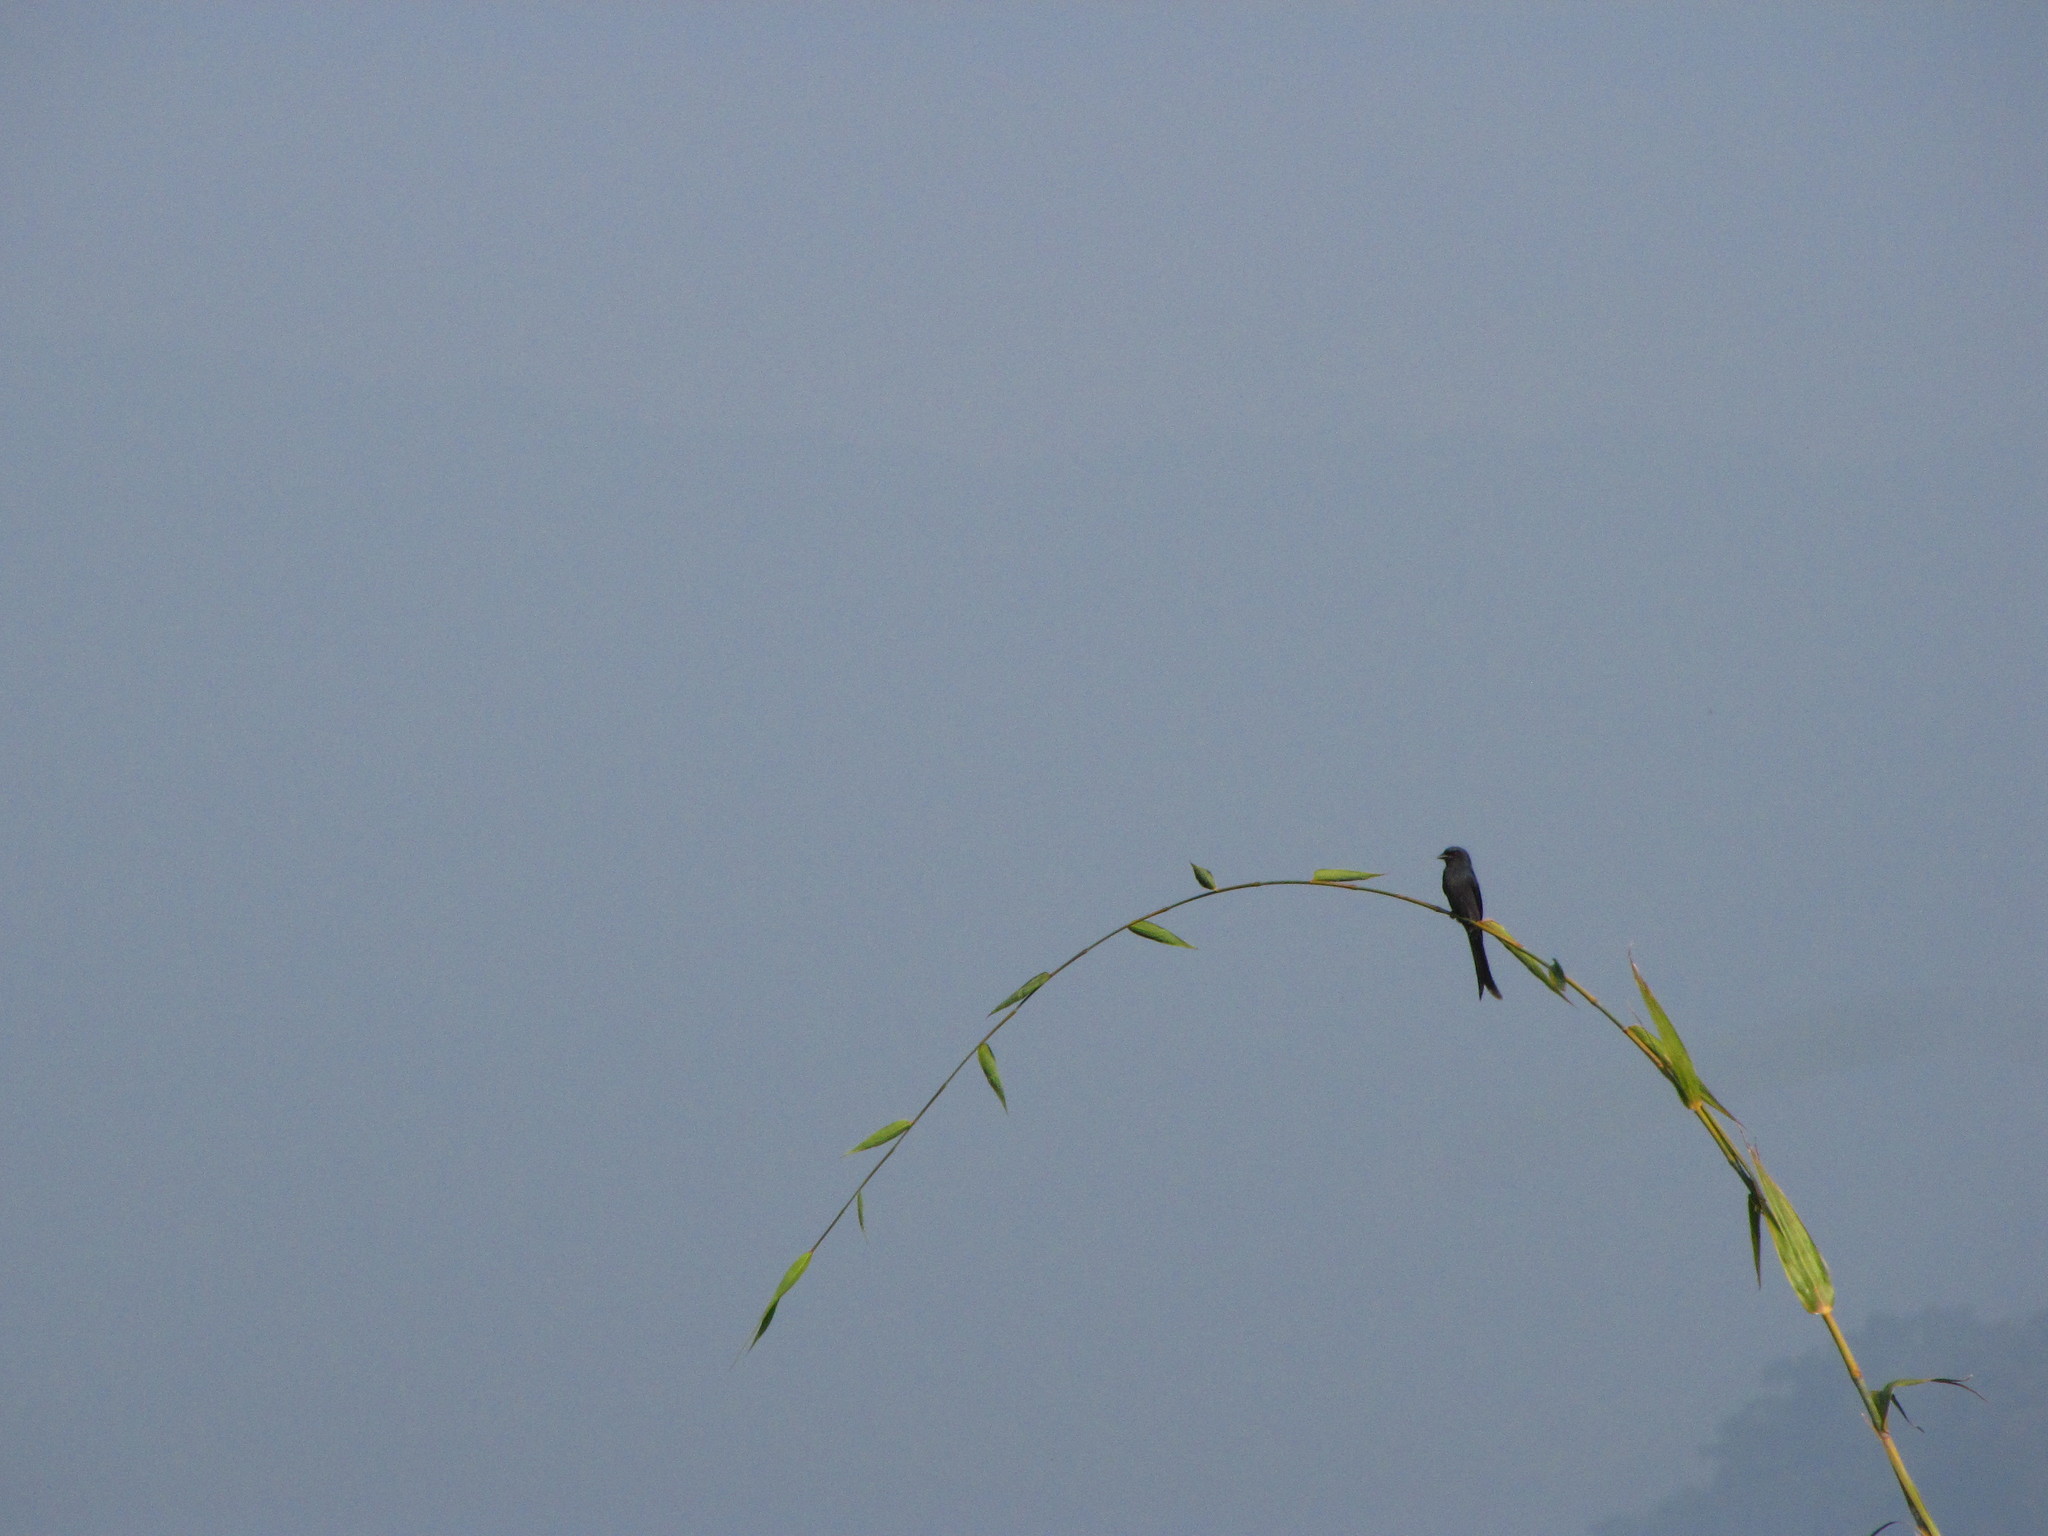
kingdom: Animalia
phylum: Chordata
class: Aves
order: Passeriformes
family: Dicruridae
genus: Dicrurus
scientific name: Dicrurus leucophaeus
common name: Ashy drongo
